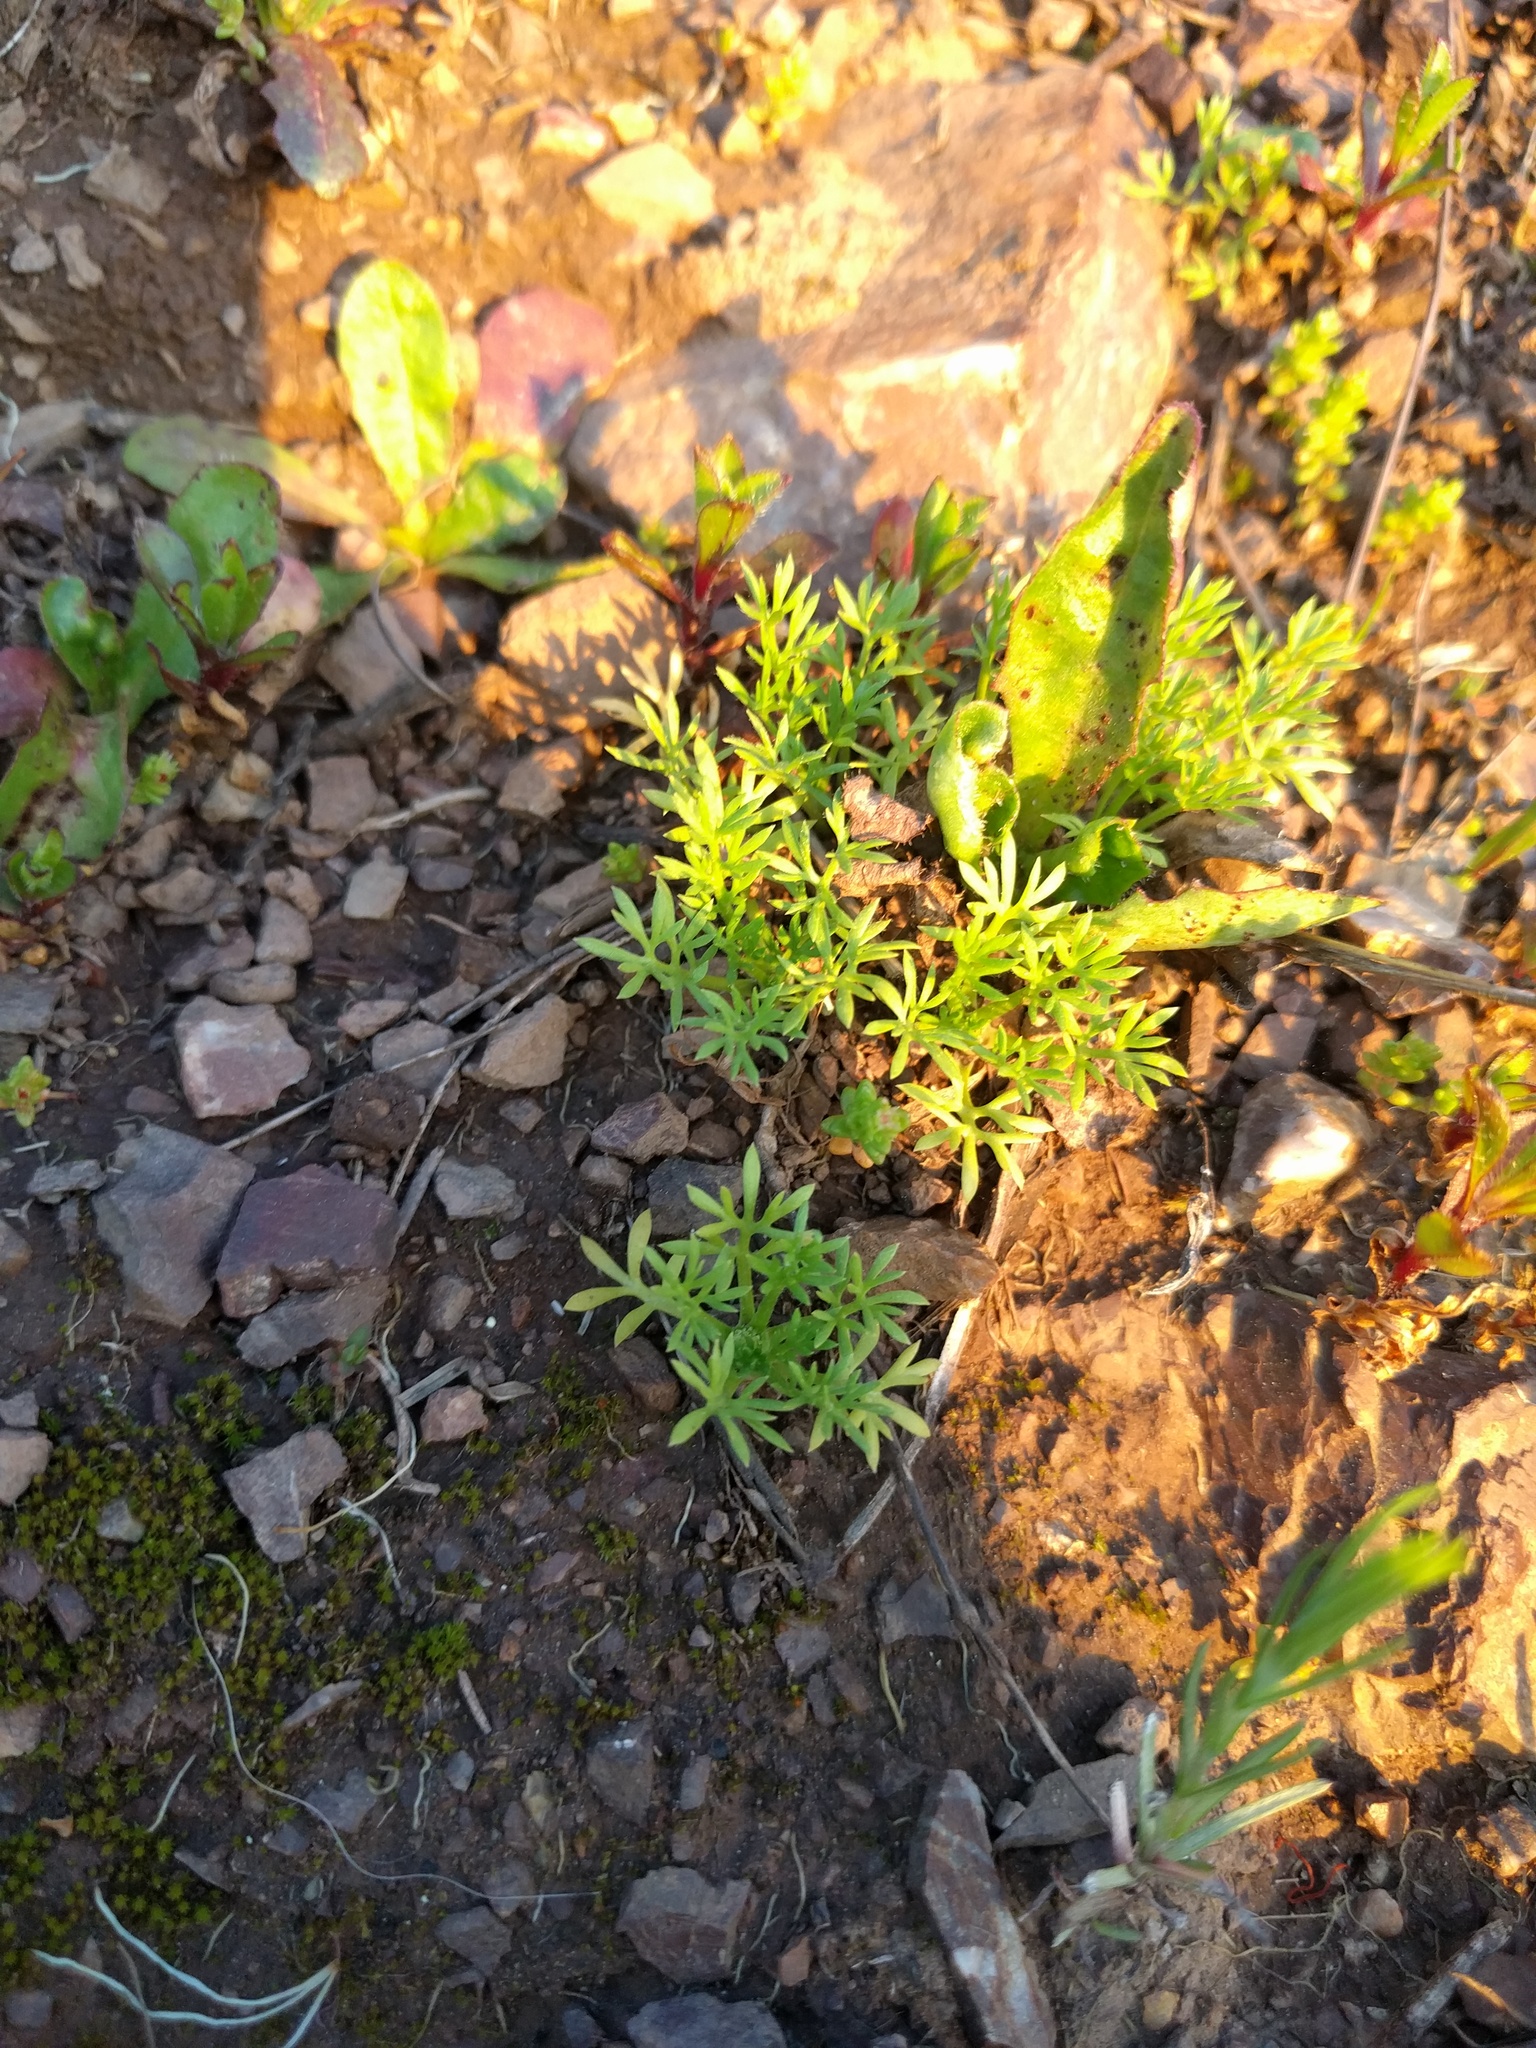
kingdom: Plantae
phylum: Tracheophyta
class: Magnoliopsida
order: Asterales
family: Asteraceae
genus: Soliva
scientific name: Soliva sessilis
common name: Field burrweed
